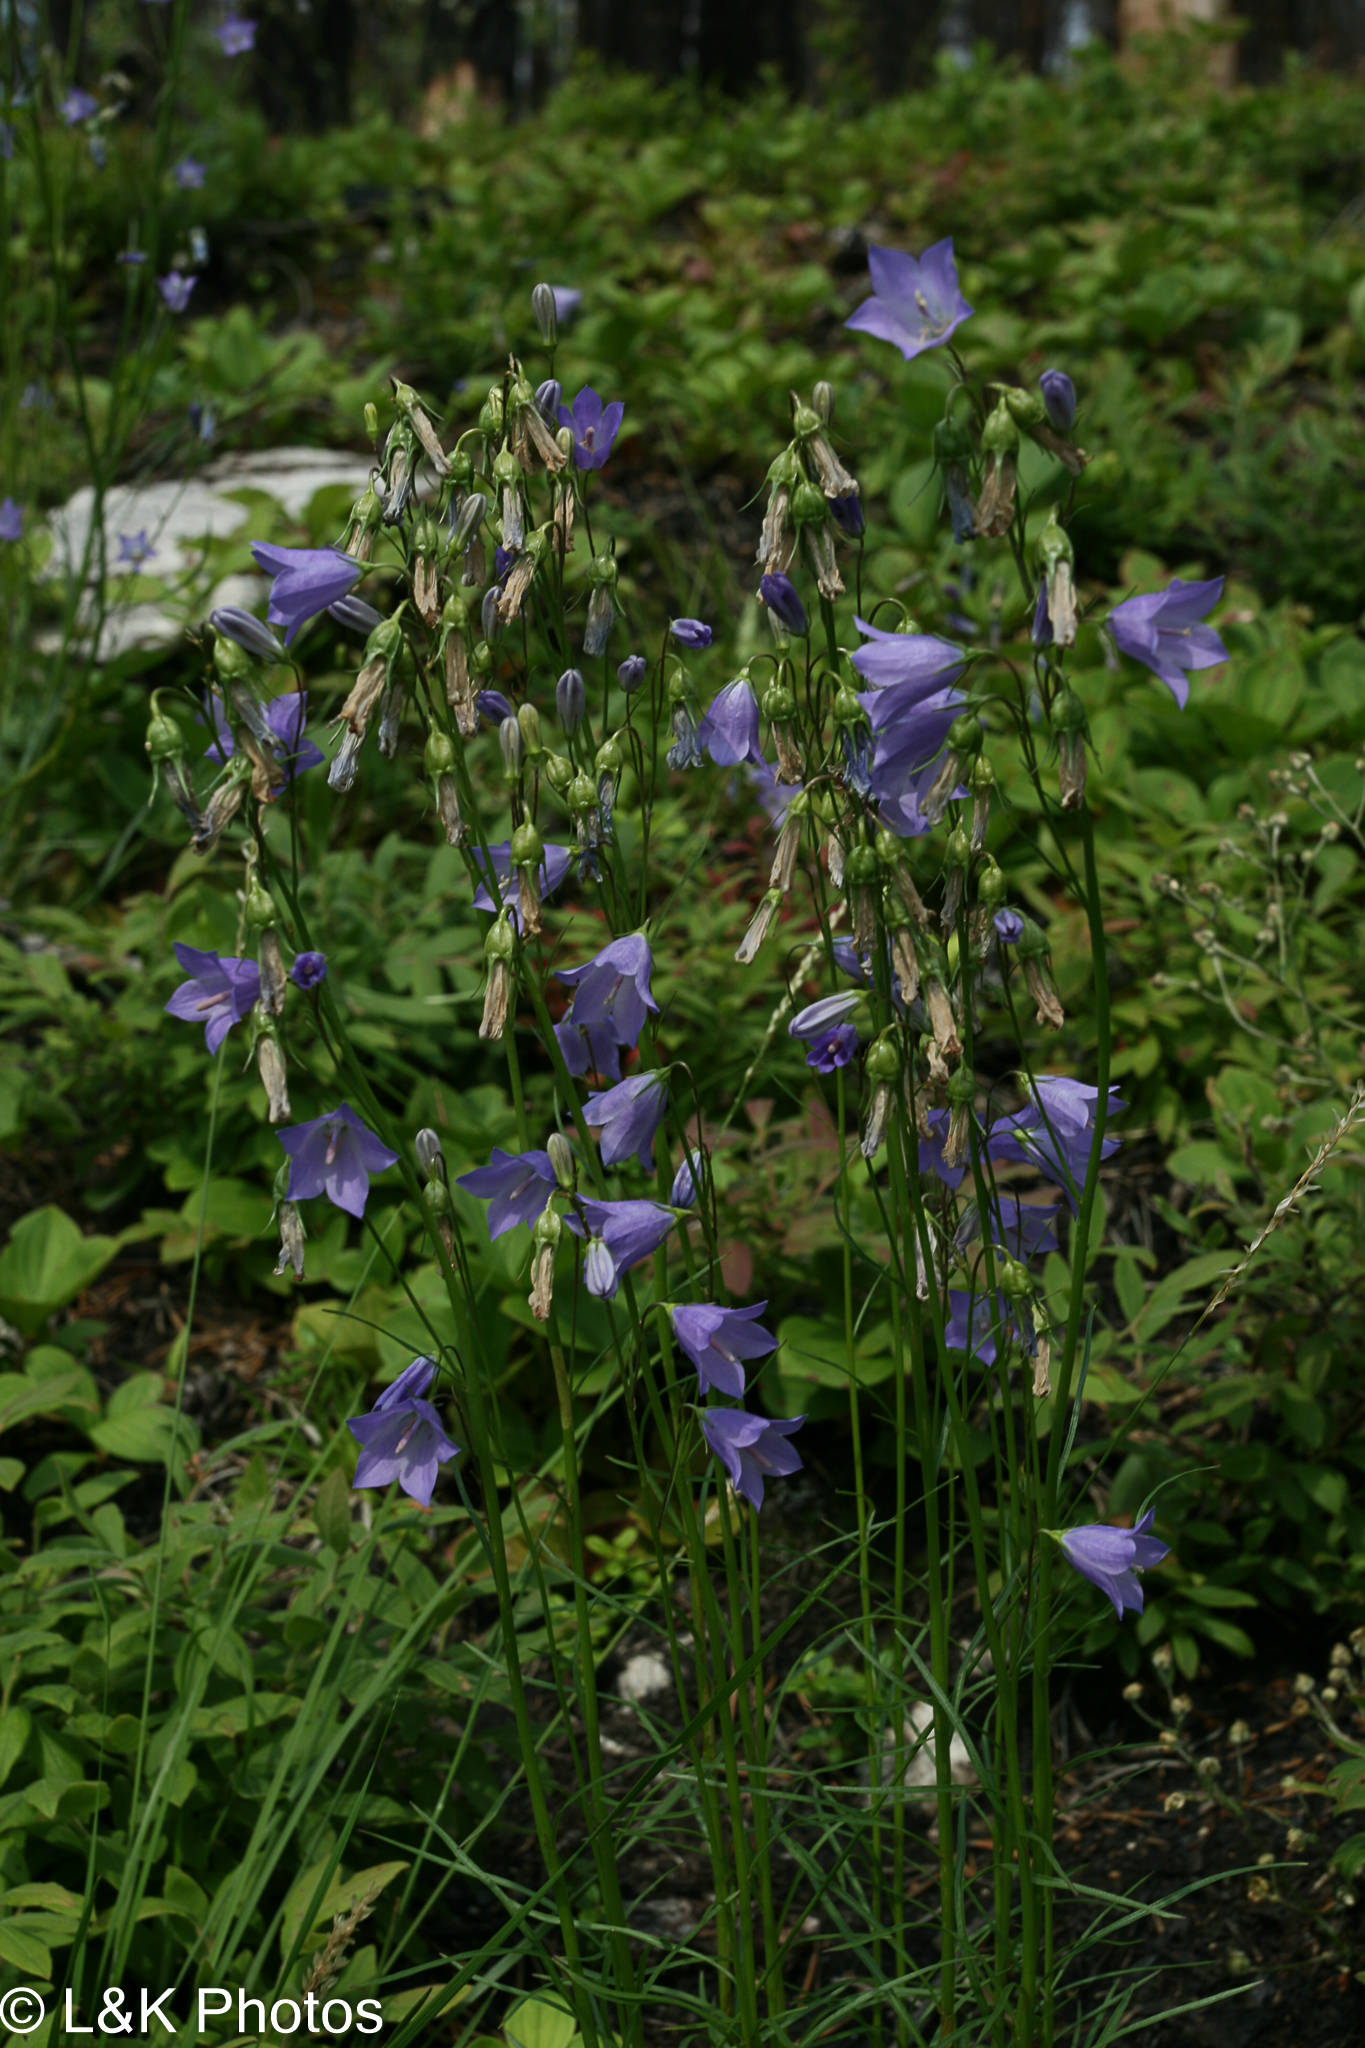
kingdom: Plantae
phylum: Tracheophyta
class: Magnoliopsida
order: Asterales
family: Campanulaceae
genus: Campanula
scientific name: Campanula alaskana
